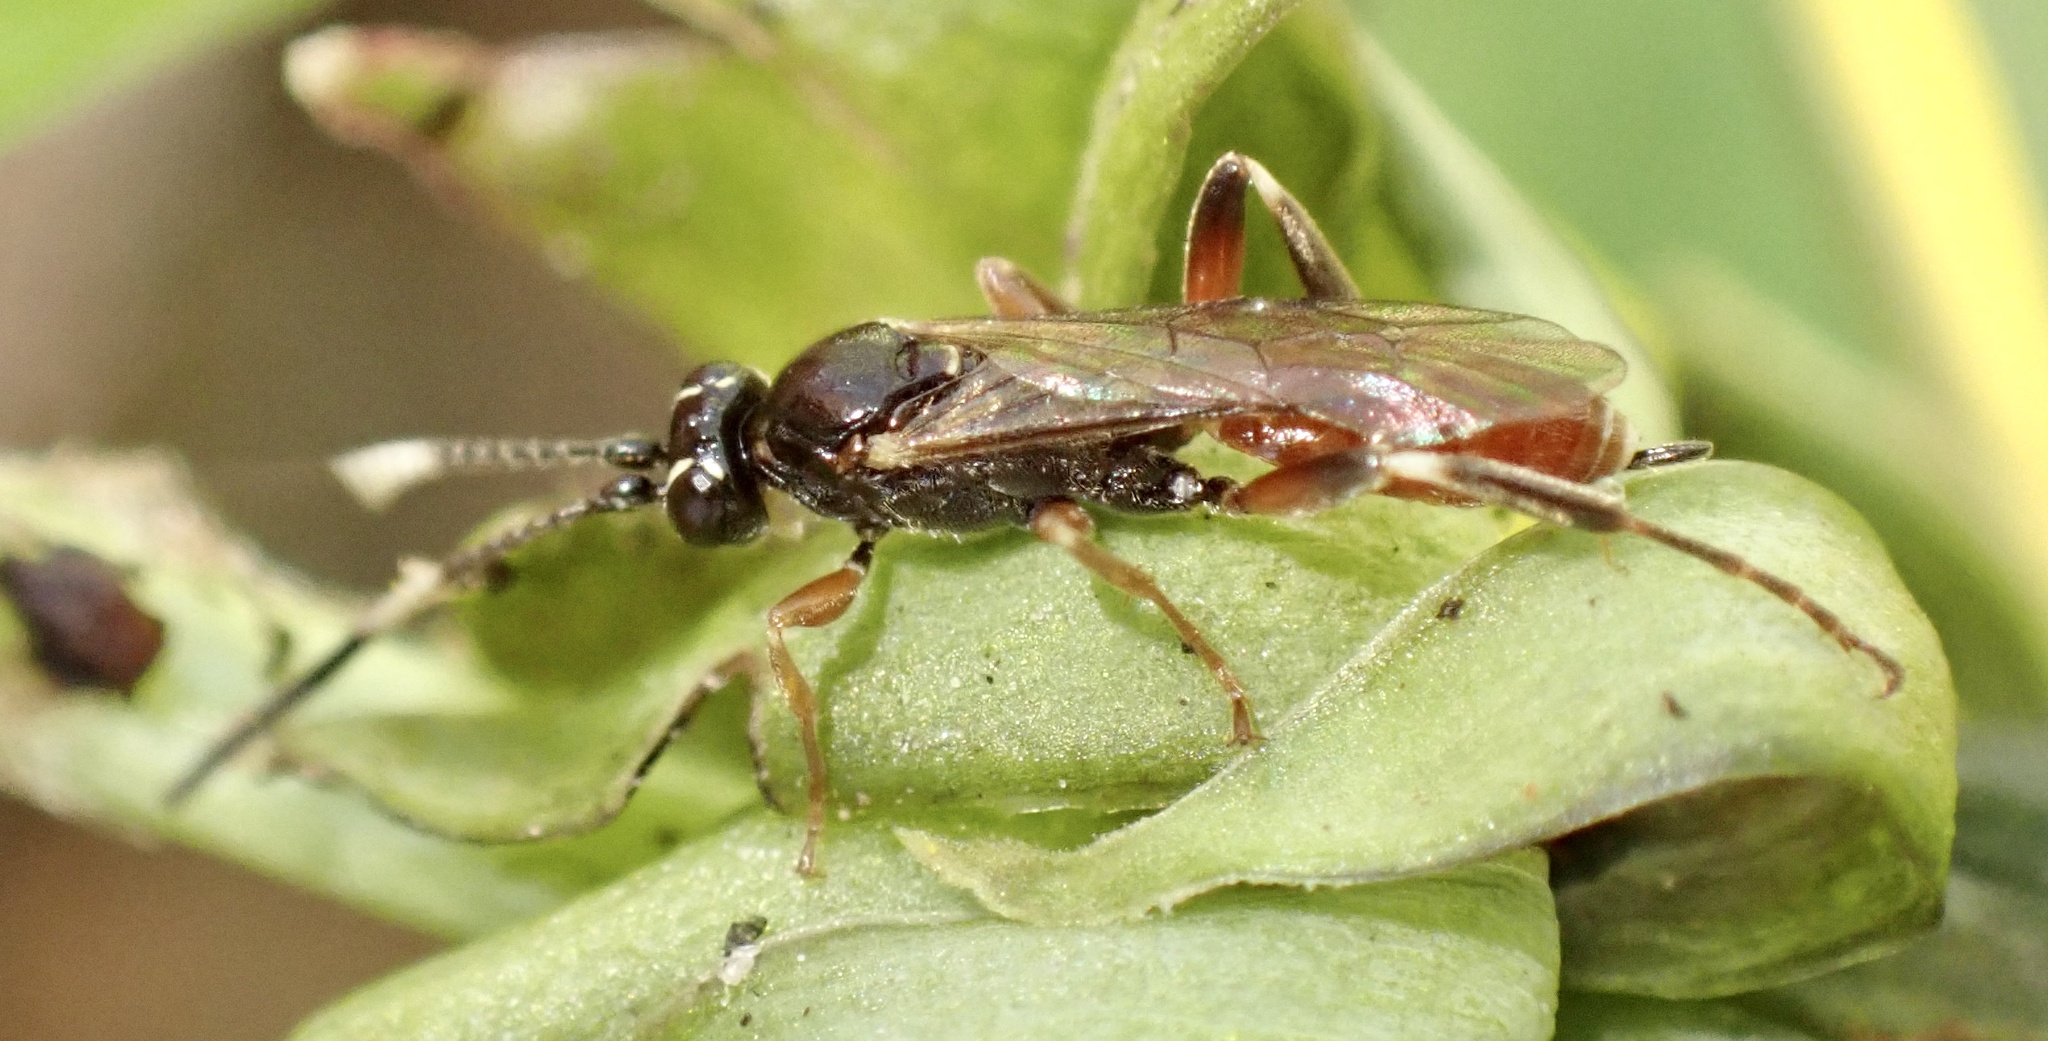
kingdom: Animalia
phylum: Arthropoda
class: Insecta
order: Hymenoptera
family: Ichneumonidae
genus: Homotherus
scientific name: Homotherus locutor
